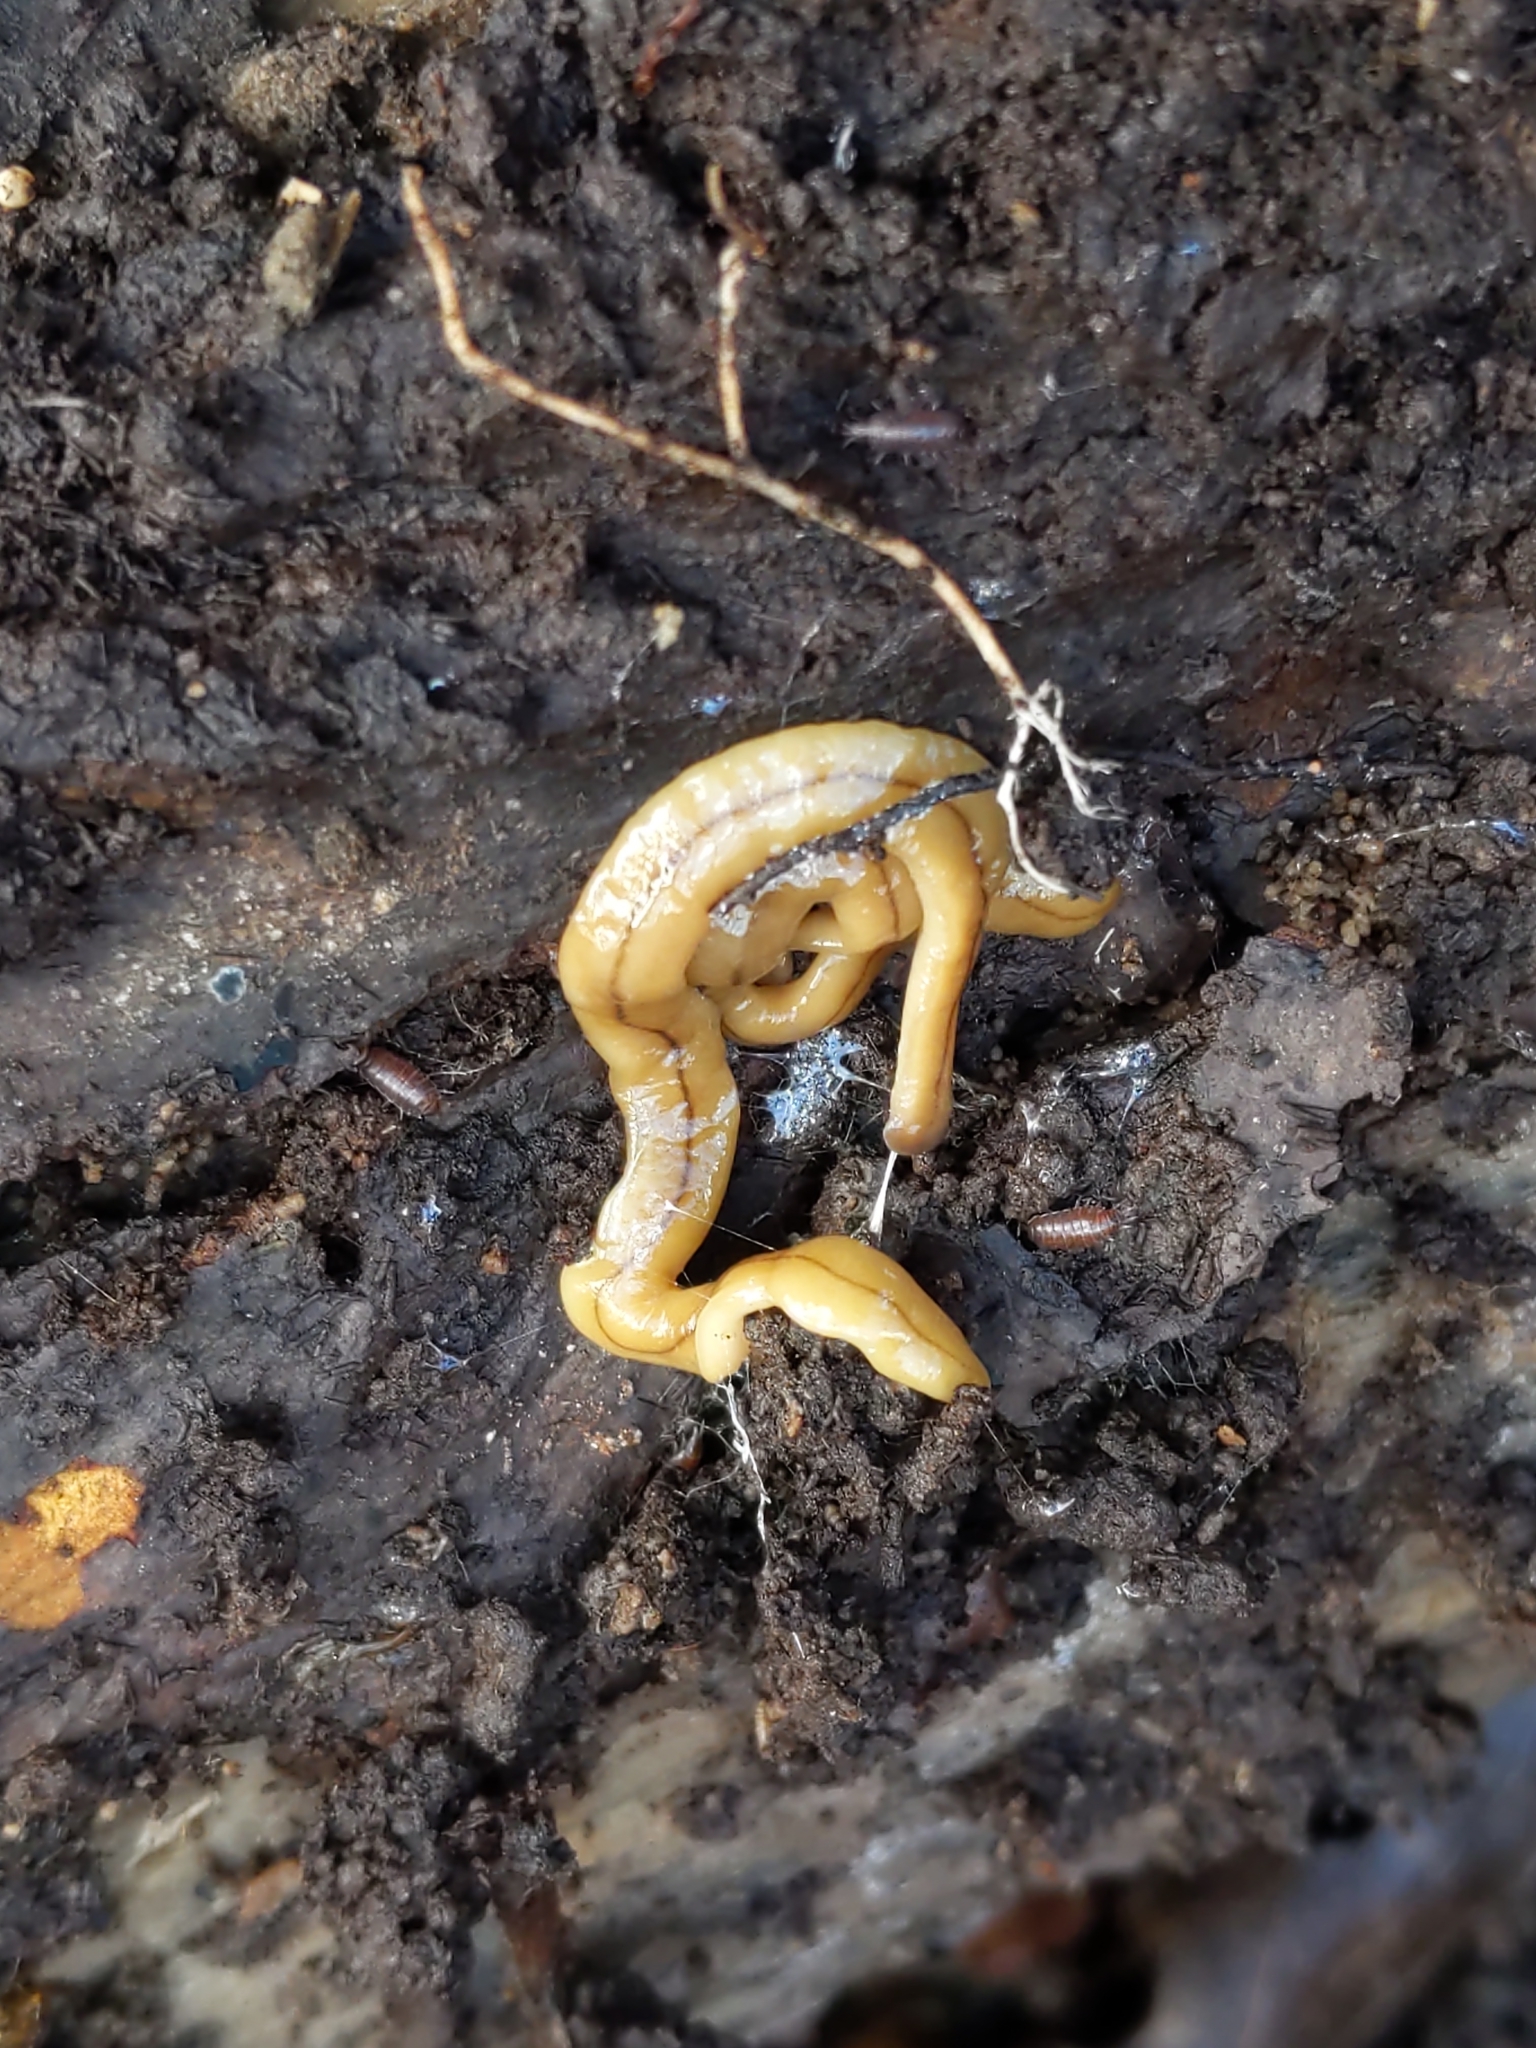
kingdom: Animalia
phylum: Platyhelminthes
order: Tricladida
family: Geoplanidae
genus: Bipalium
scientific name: Bipalium adventitium
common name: Land planarian
